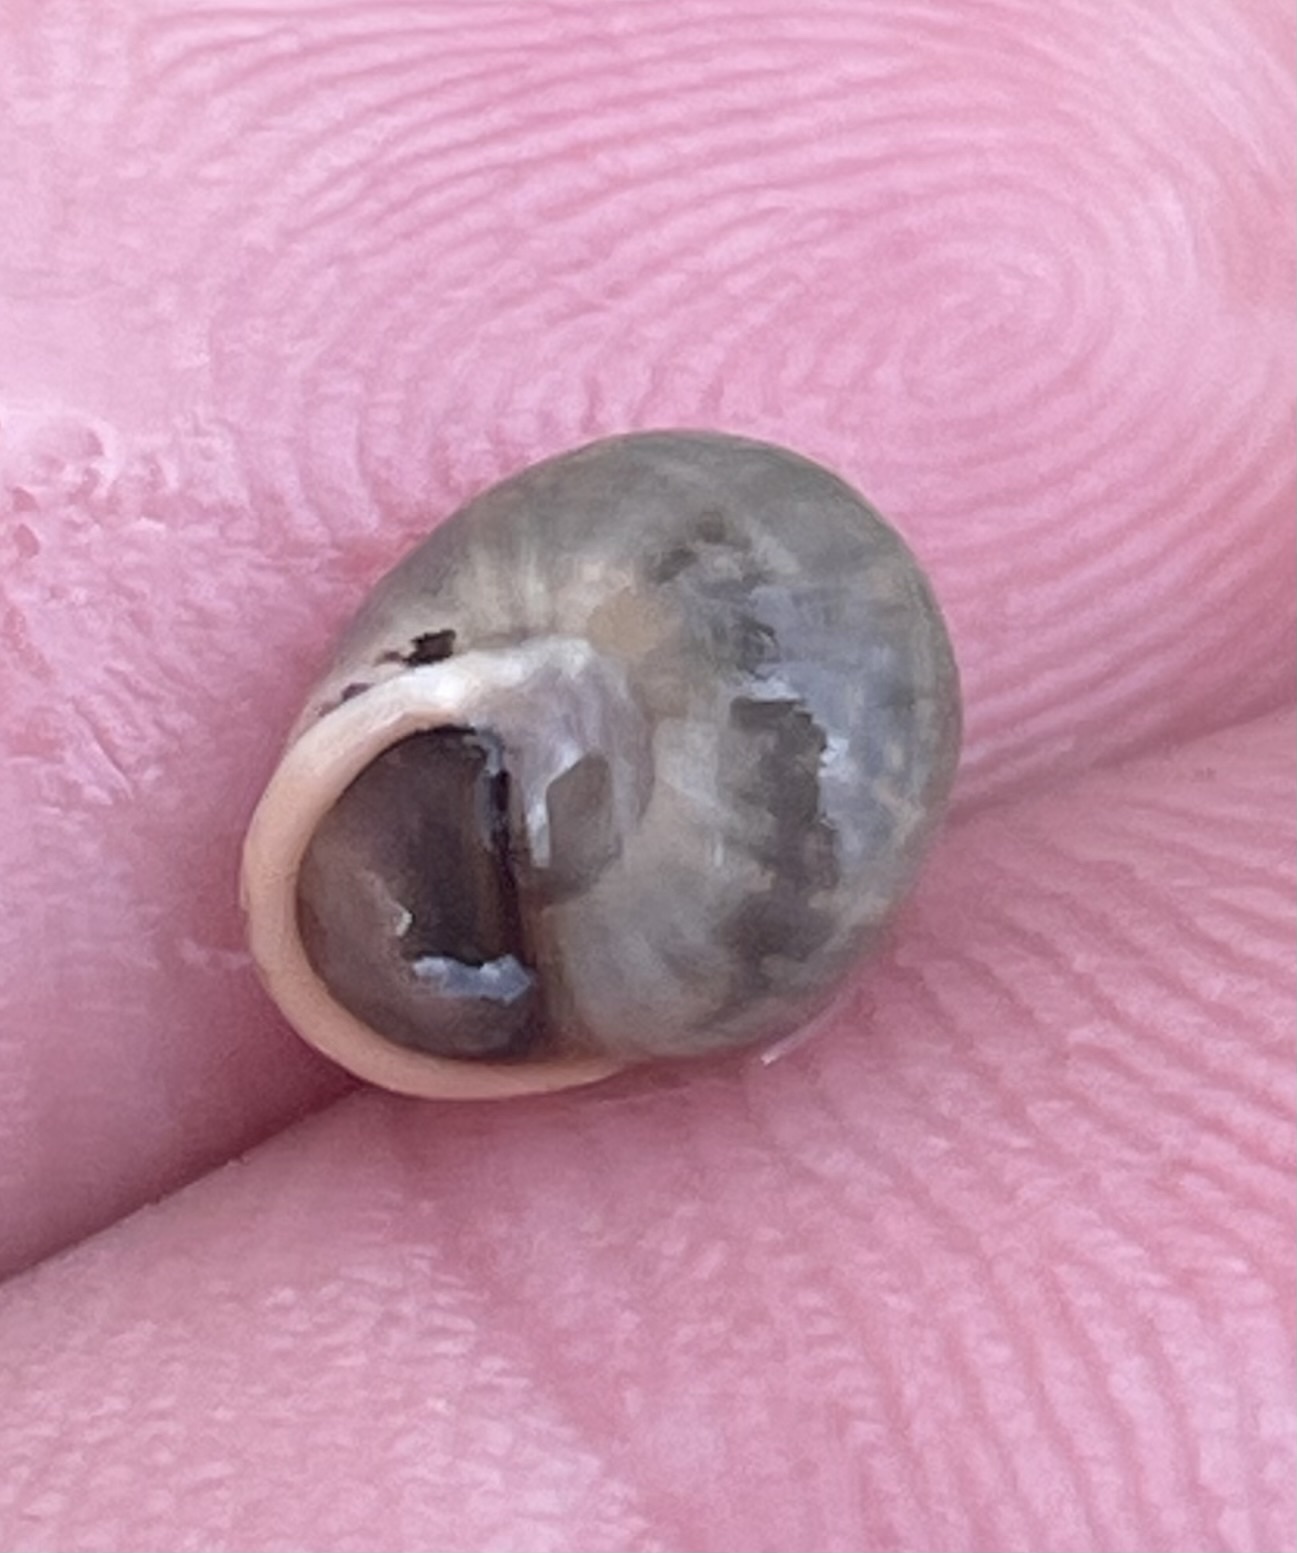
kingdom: Animalia
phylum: Mollusca
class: Gastropoda
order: Cycloneritida
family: Helicinidae
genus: Helicina
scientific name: Helicina orbiculata
